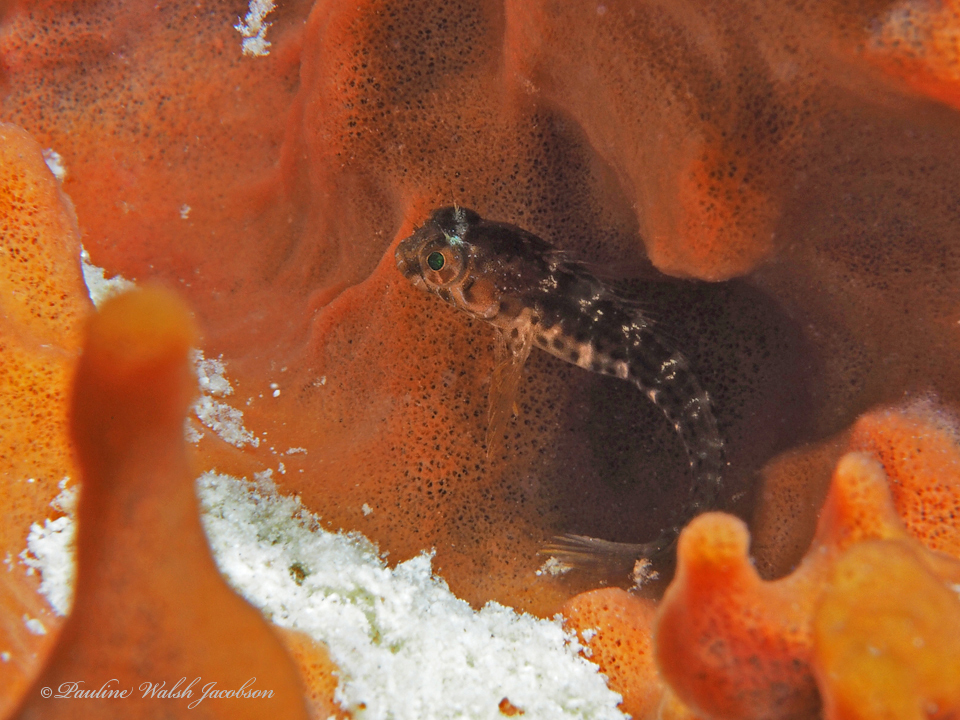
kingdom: Animalia
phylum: Chordata
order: Perciformes
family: Blenniidae
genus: Parablennius
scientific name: Parablennius marmoreus
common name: Seaweed blenny
